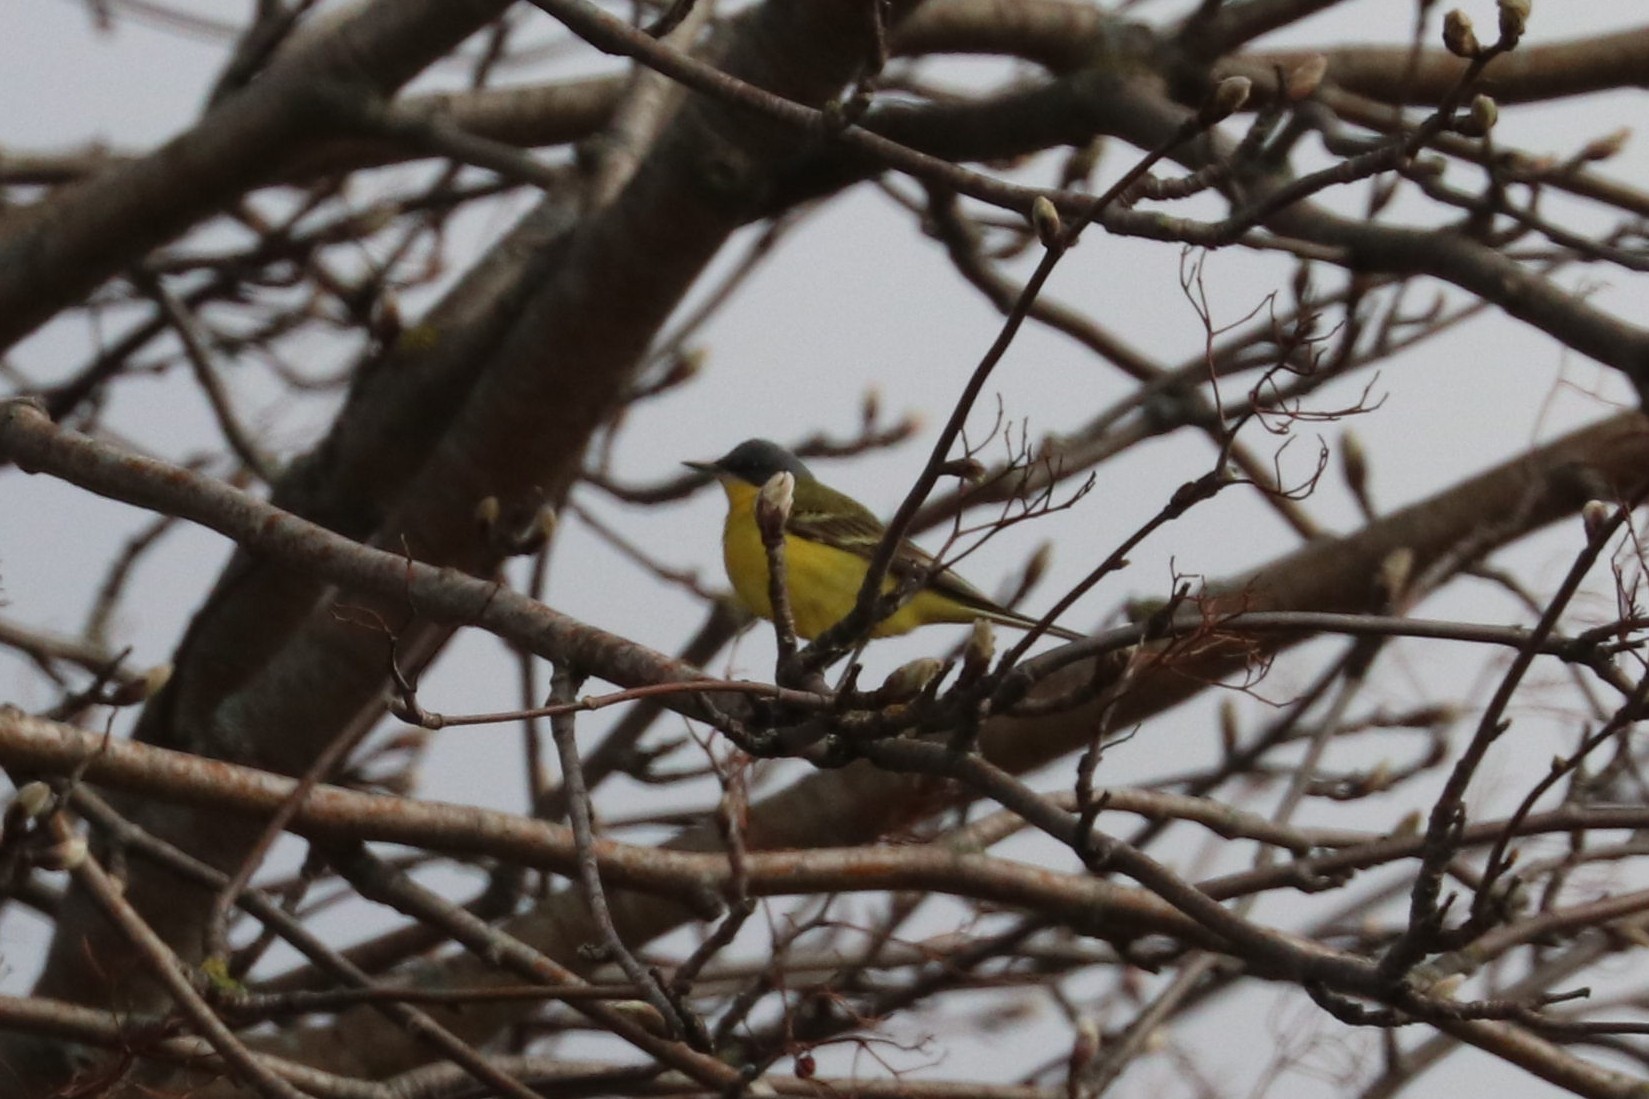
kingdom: Animalia
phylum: Chordata
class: Aves
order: Passeriformes
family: Motacillidae
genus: Motacilla
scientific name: Motacilla flava
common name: Western yellow wagtail
